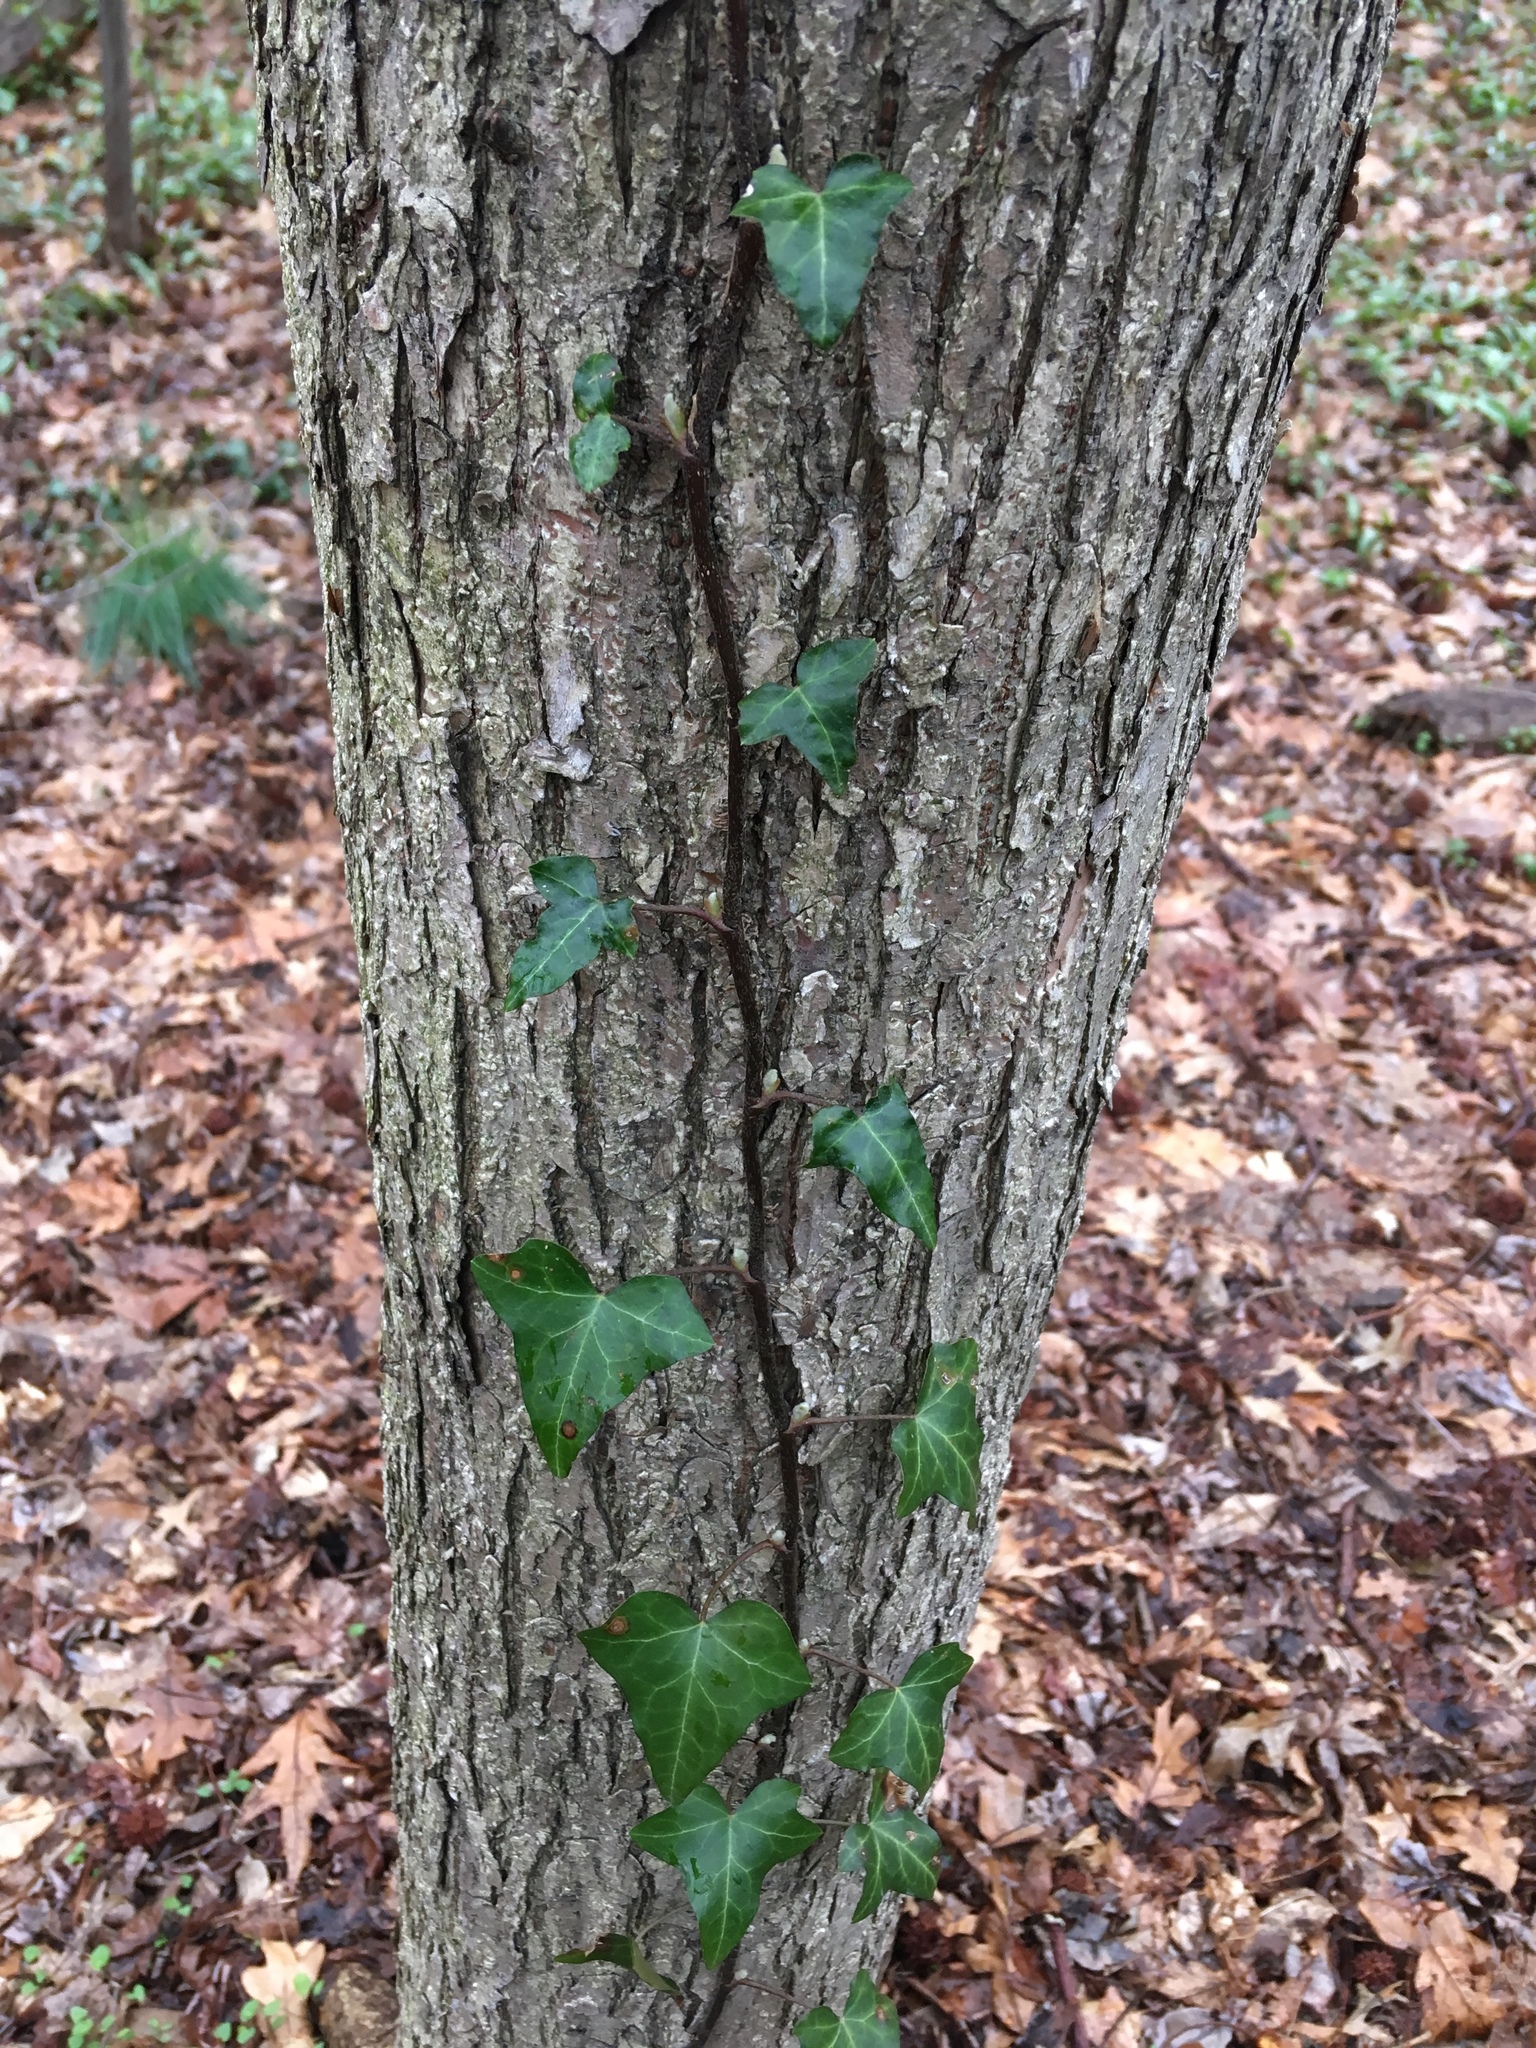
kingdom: Plantae
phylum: Tracheophyta
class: Magnoliopsida
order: Apiales
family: Araliaceae
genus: Hedera
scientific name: Hedera helix
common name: Ivy
